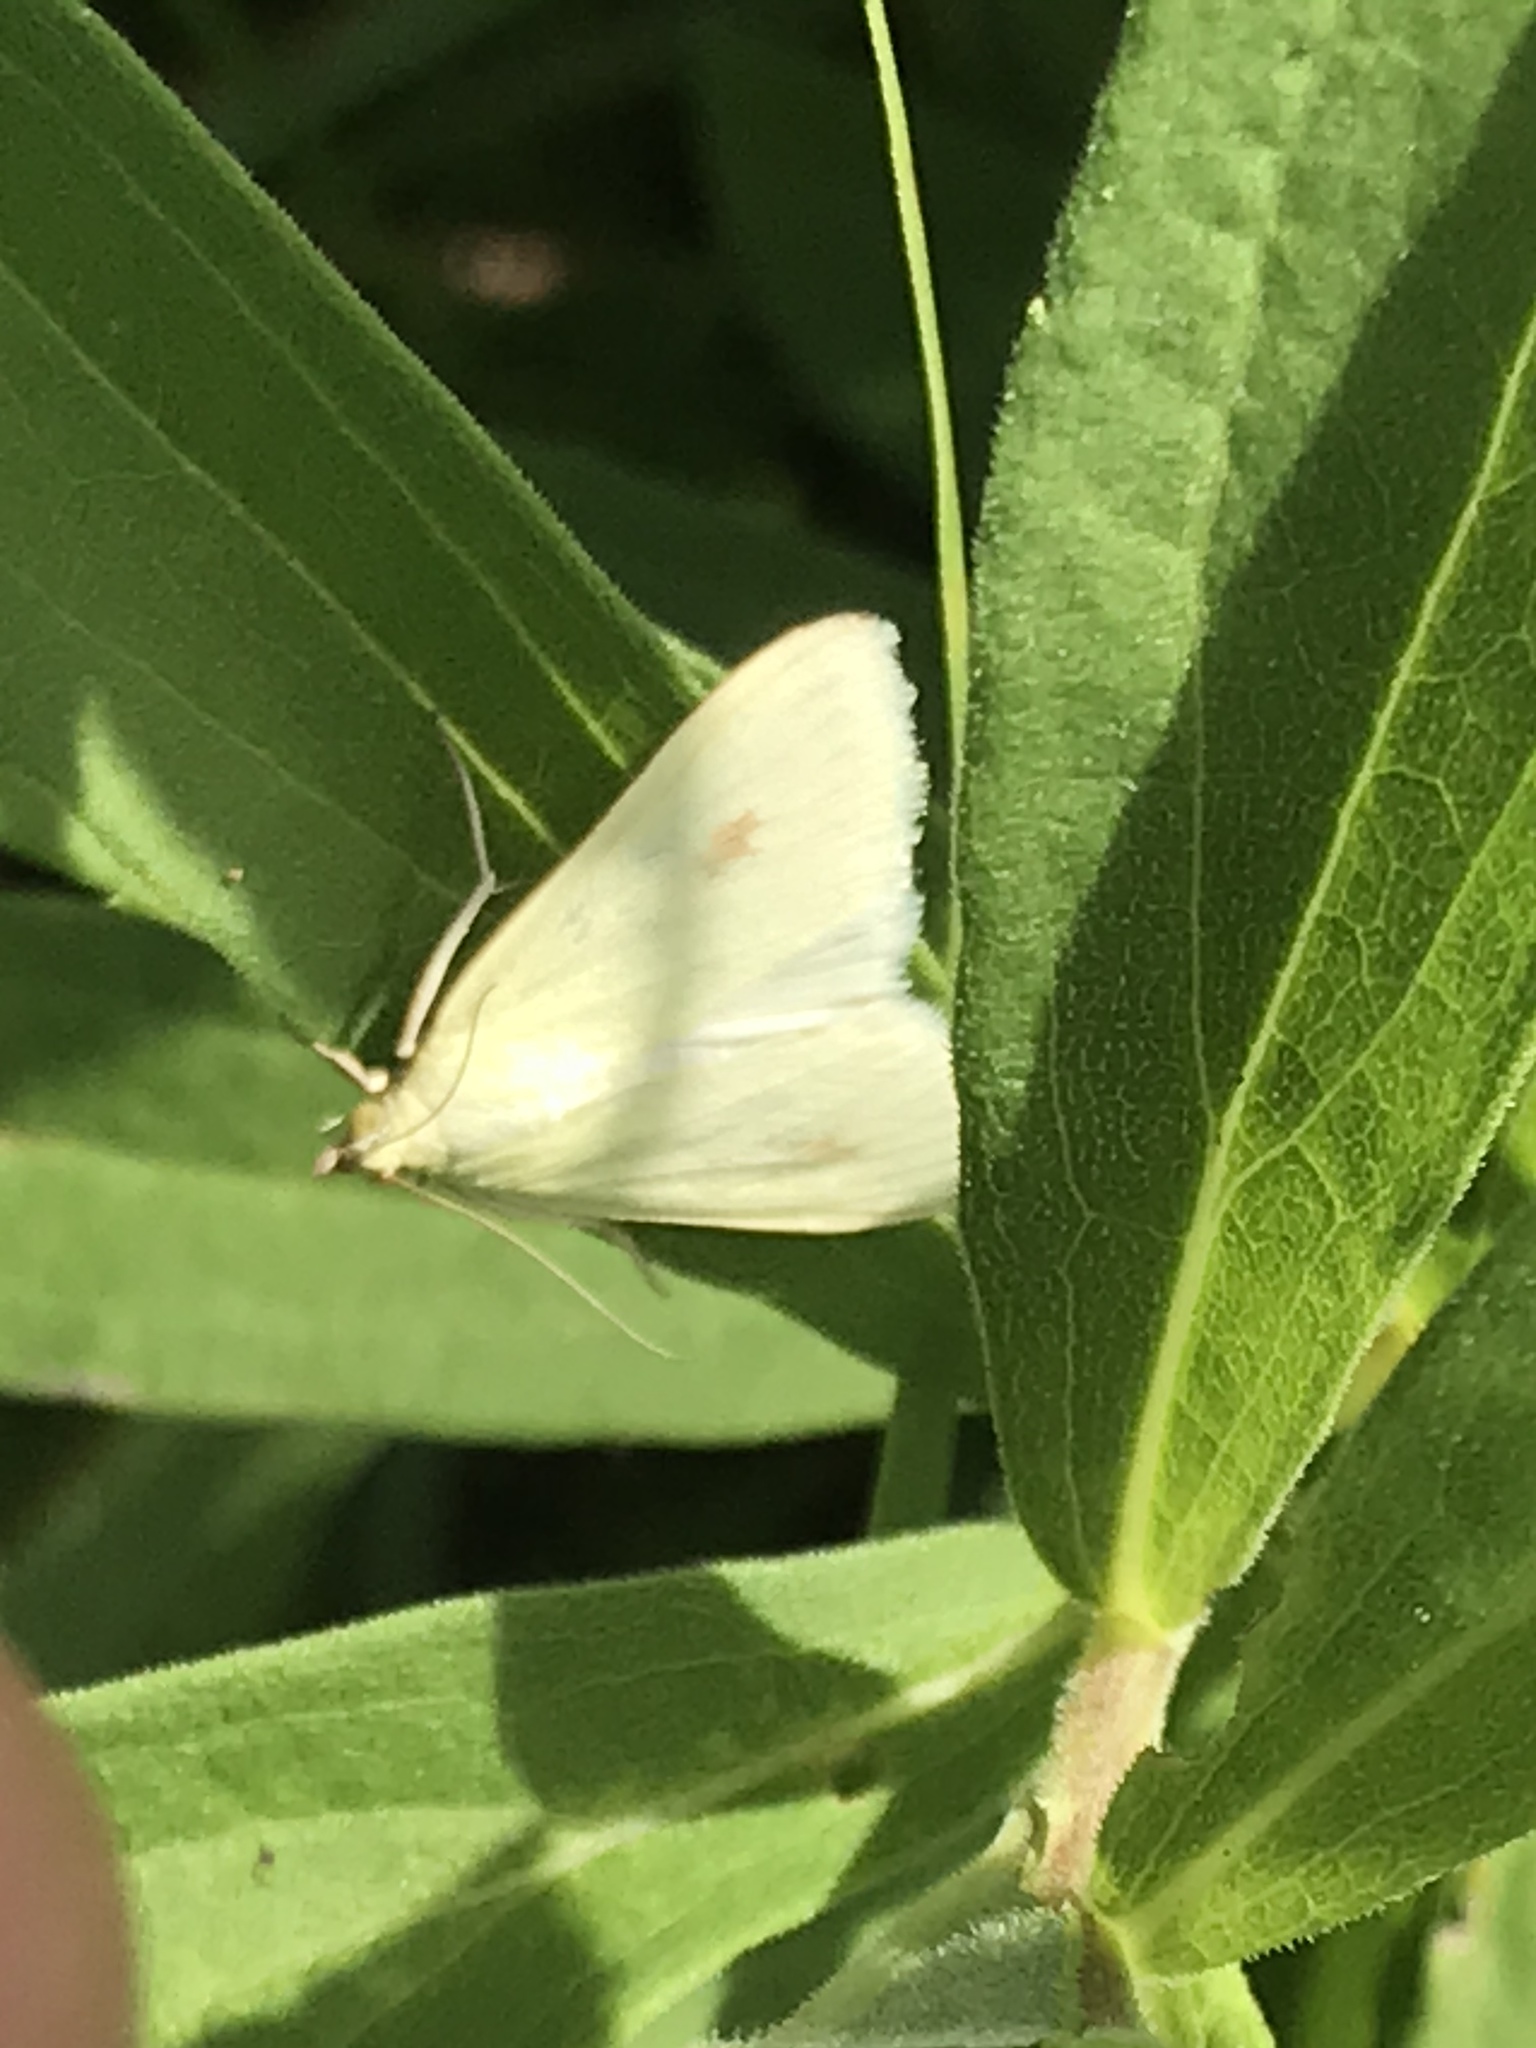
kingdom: Animalia
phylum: Arthropoda
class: Insecta
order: Lepidoptera
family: Crambidae
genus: Sitochroa
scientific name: Sitochroa palealis
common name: Greenish-yellow sitochroa moth
